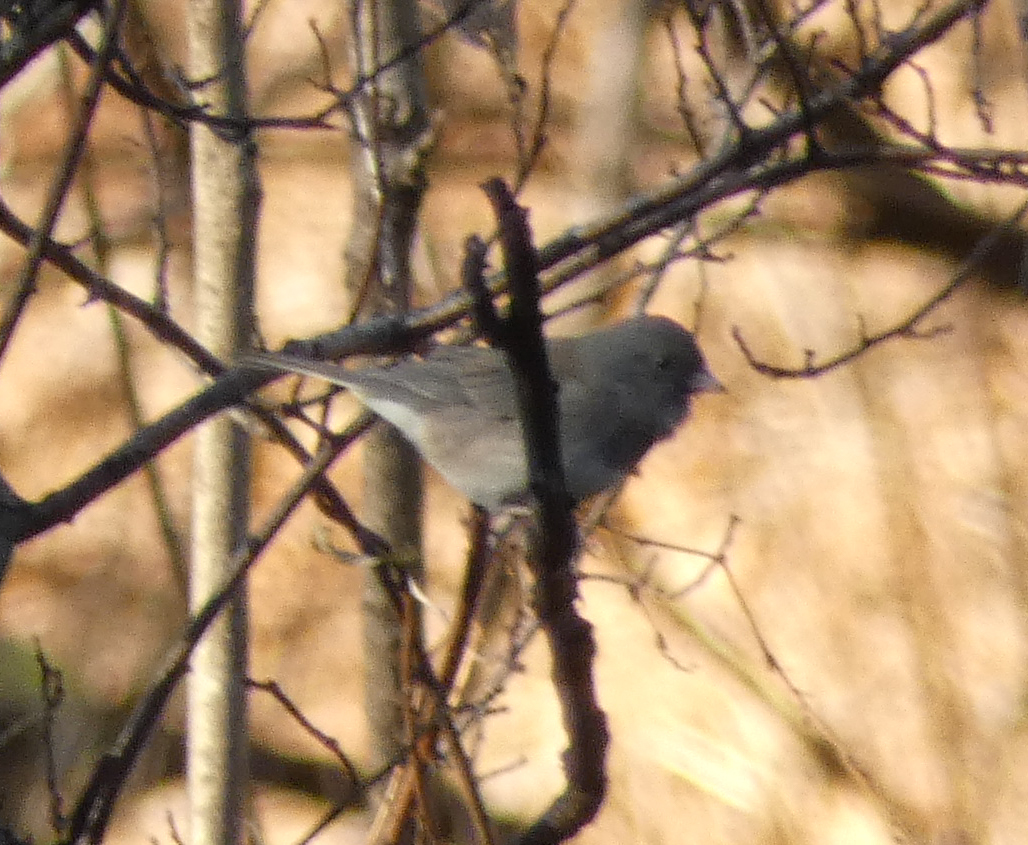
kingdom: Animalia
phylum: Chordata
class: Aves
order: Passeriformes
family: Passerellidae
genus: Junco
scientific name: Junco hyemalis
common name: Dark-eyed junco
